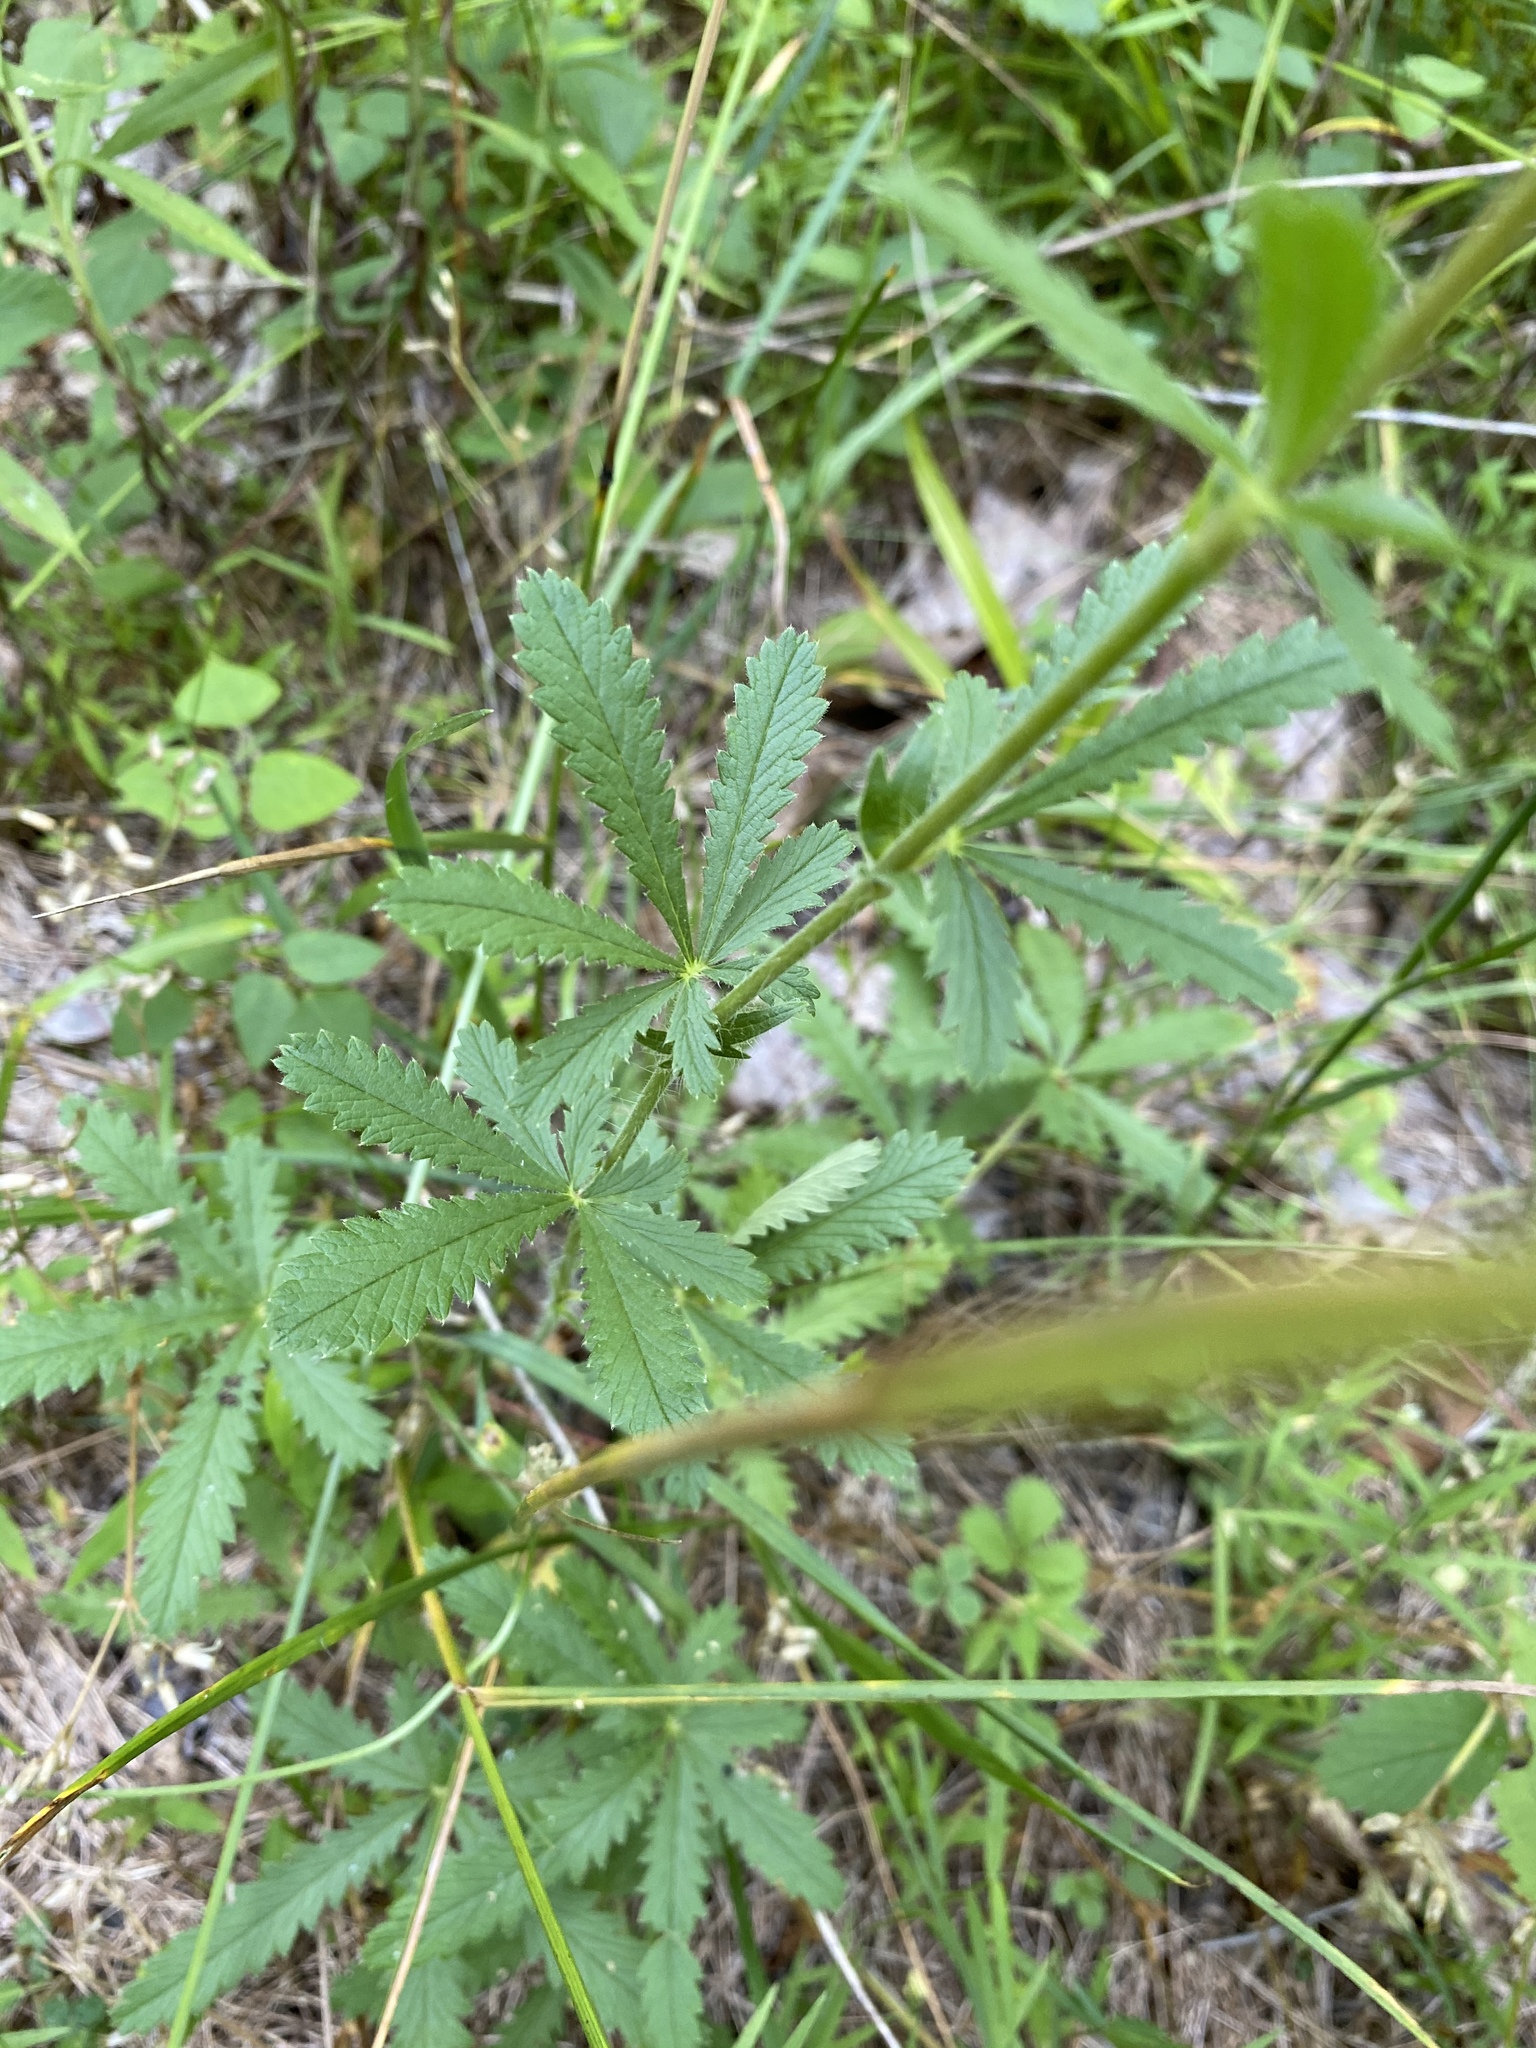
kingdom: Plantae
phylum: Tracheophyta
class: Magnoliopsida
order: Rosales
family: Rosaceae
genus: Potentilla
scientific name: Potentilla recta
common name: Sulphur cinquefoil
